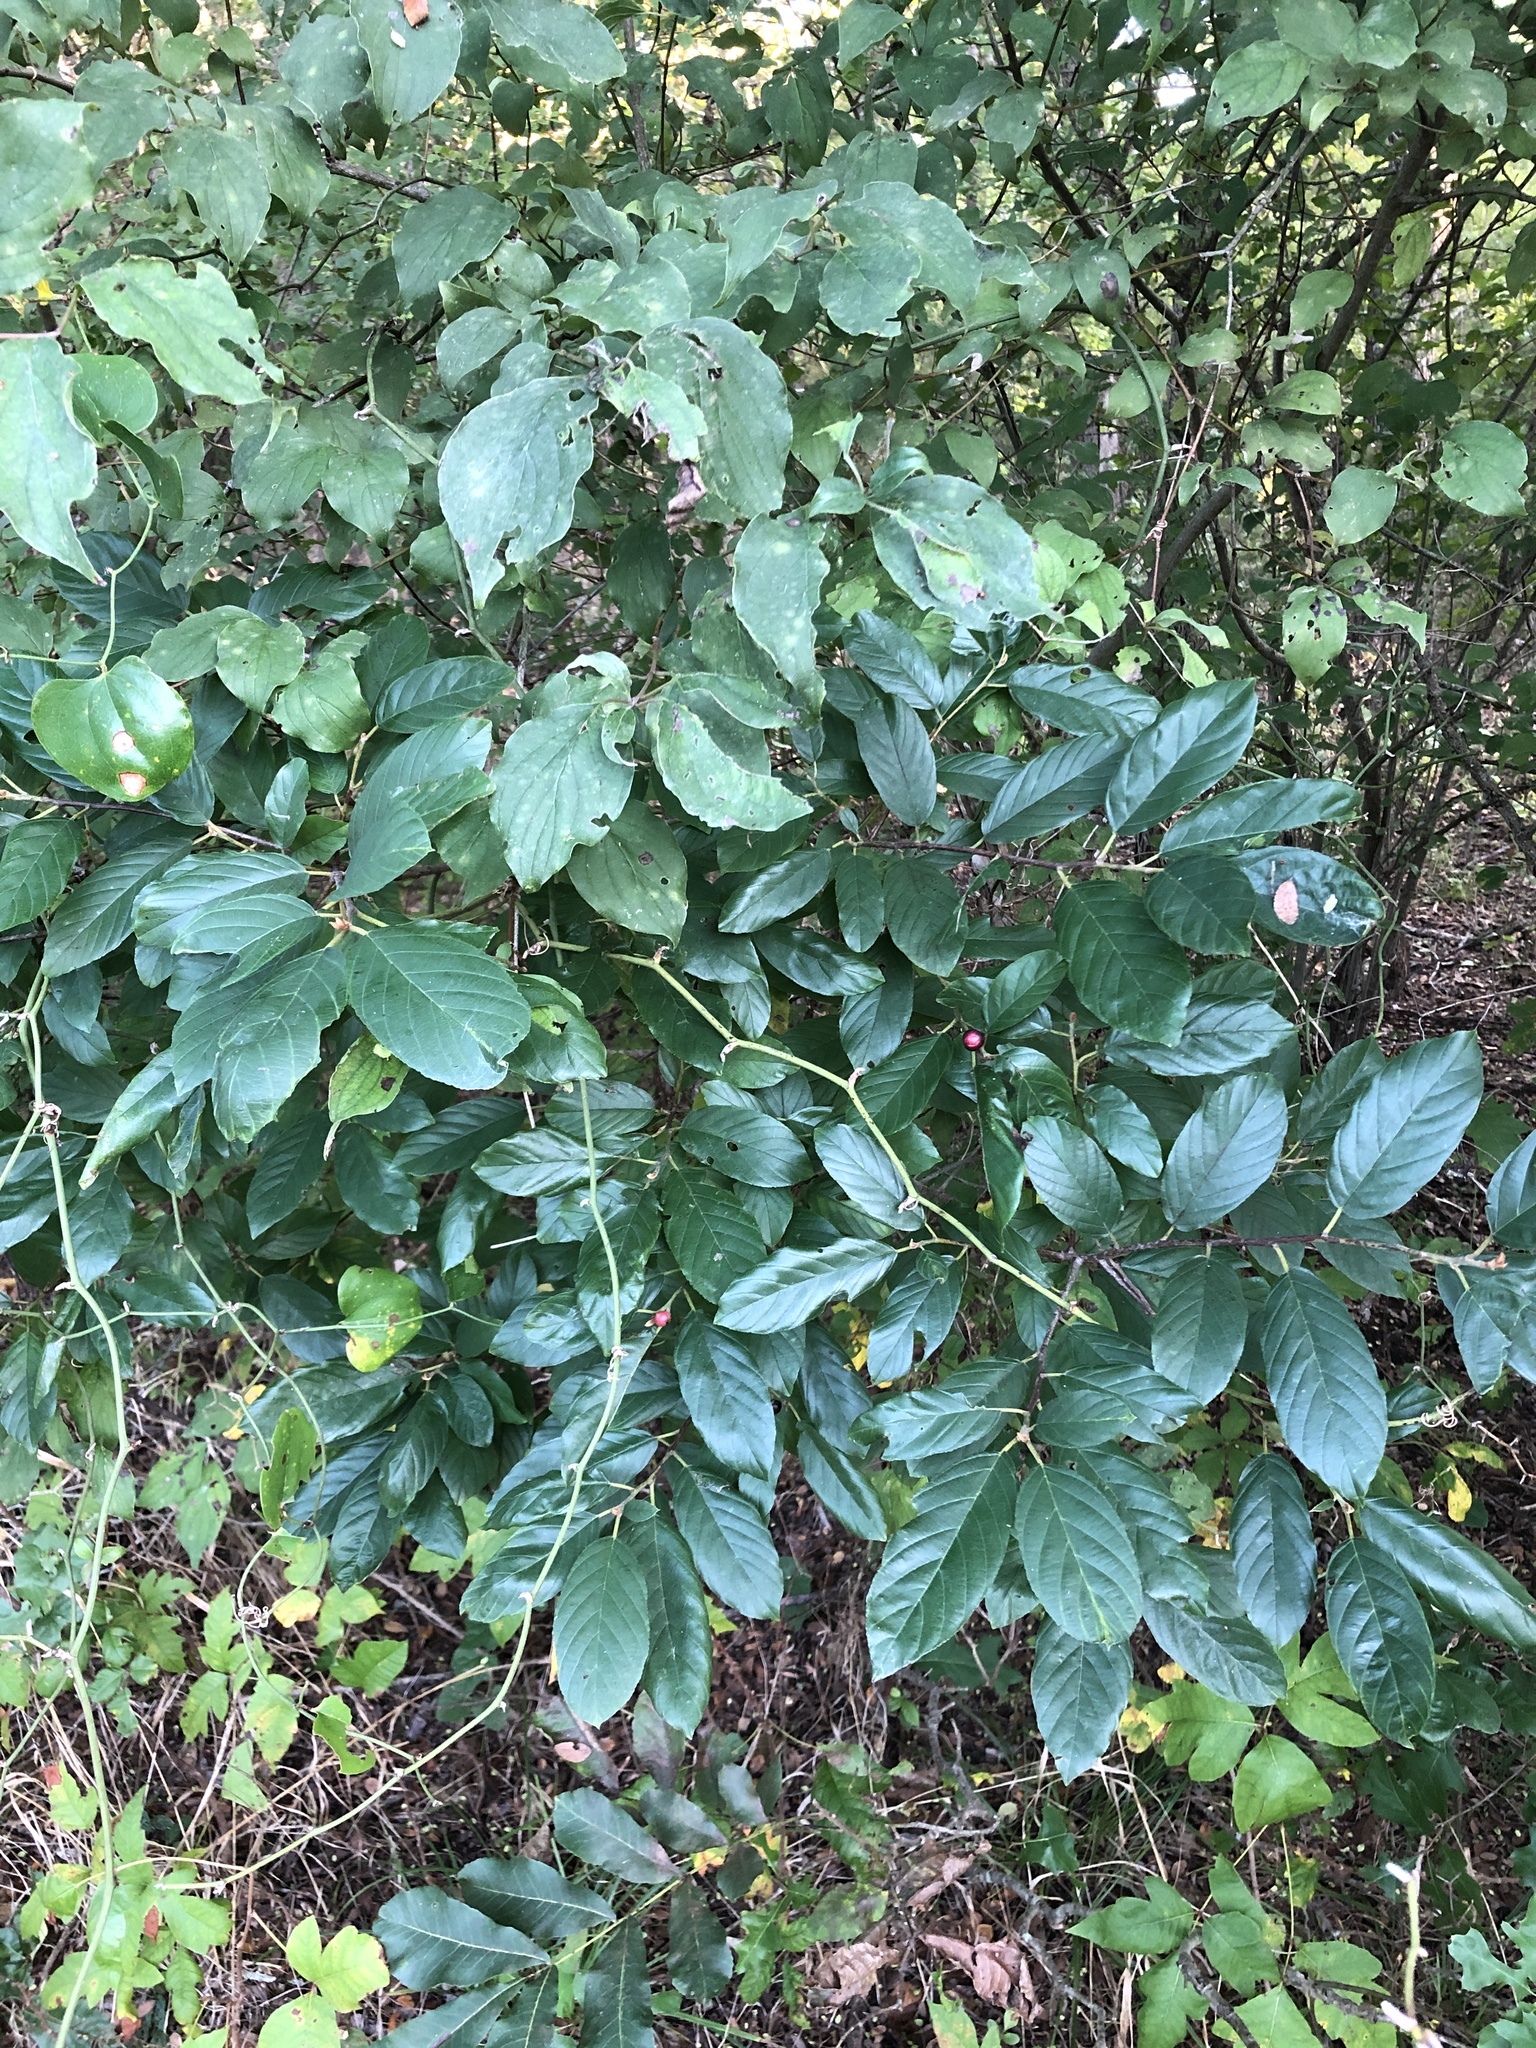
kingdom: Plantae
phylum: Tracheophyta
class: Magnoliopsida
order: Rosales
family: Rhamnaceae
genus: Frangula
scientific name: Frangula caroliniana
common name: Carolina buckthorn
